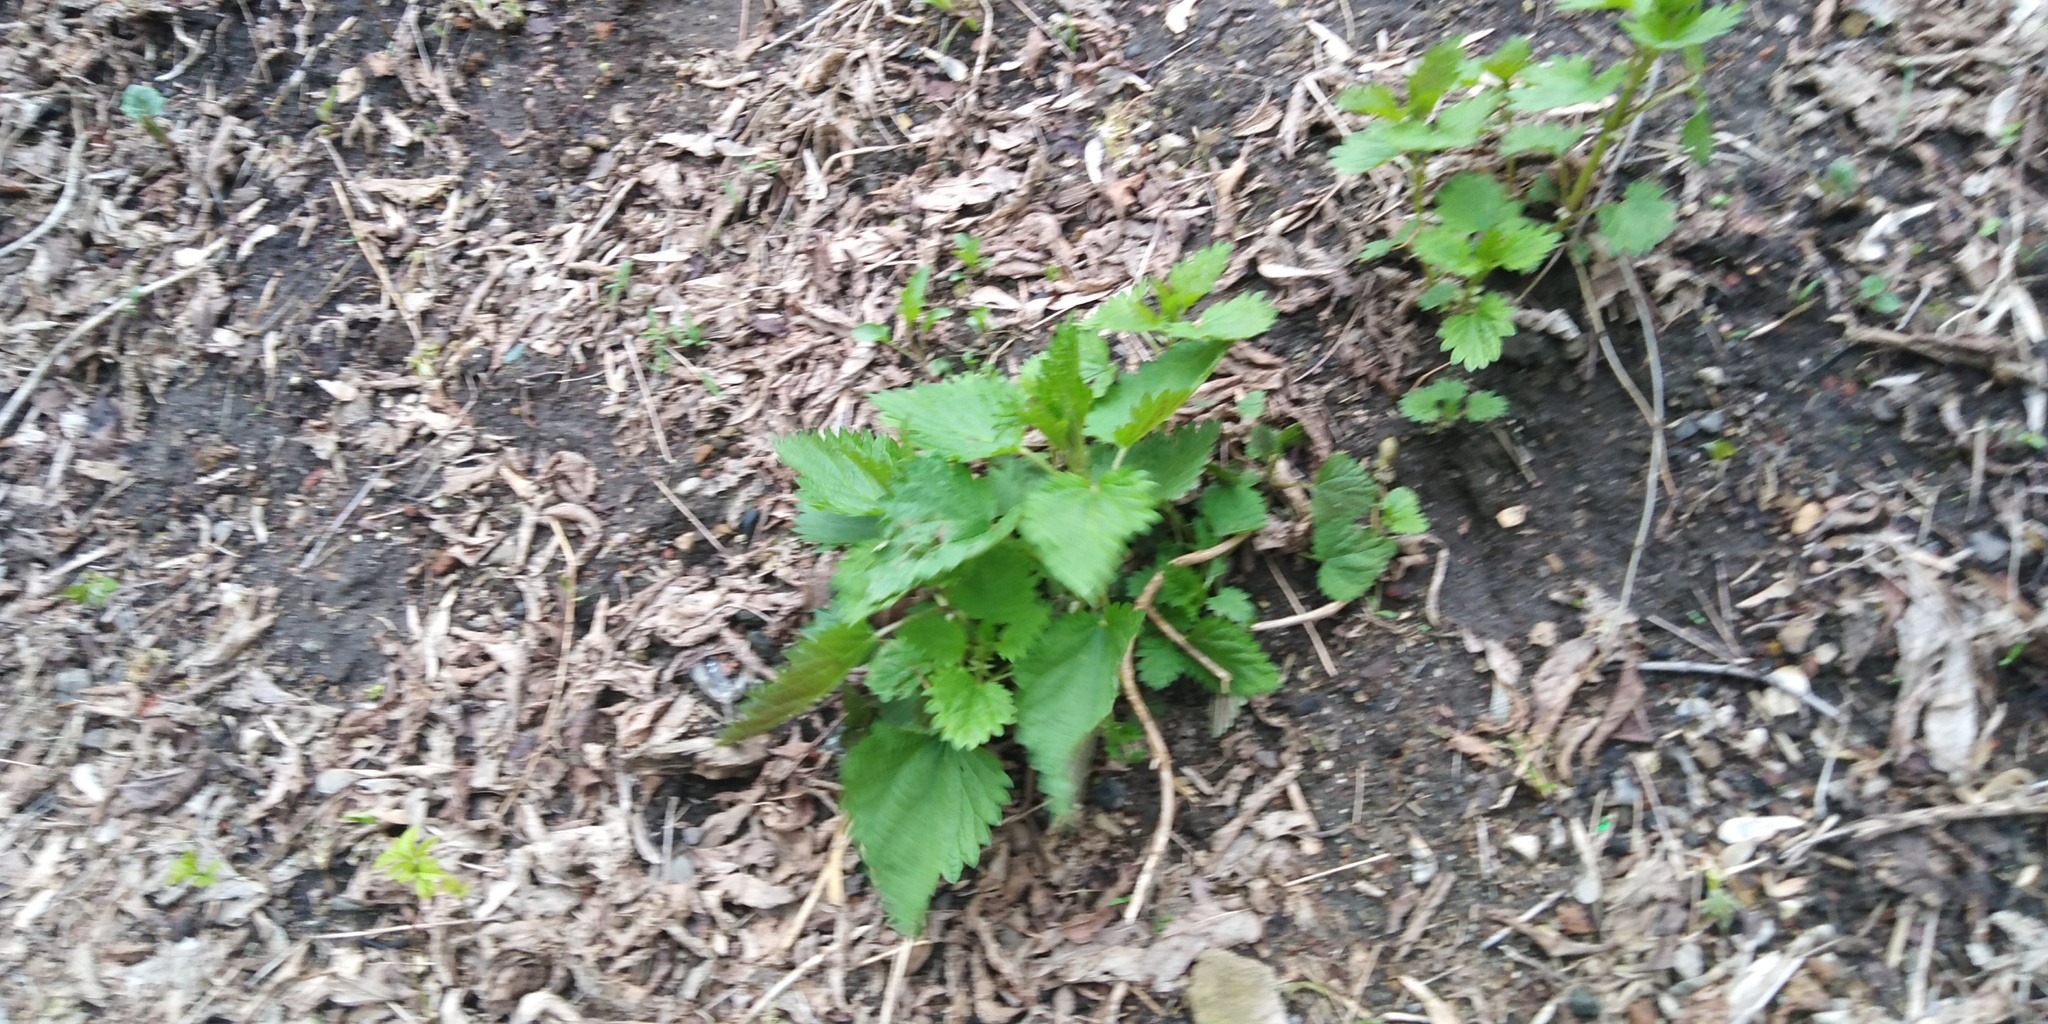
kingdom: Plantae
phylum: Tracheophyta
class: Magnoliopsida
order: Rosales
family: Urticaceae
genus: Urtica
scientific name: Urtica dioica
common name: Common nettle
